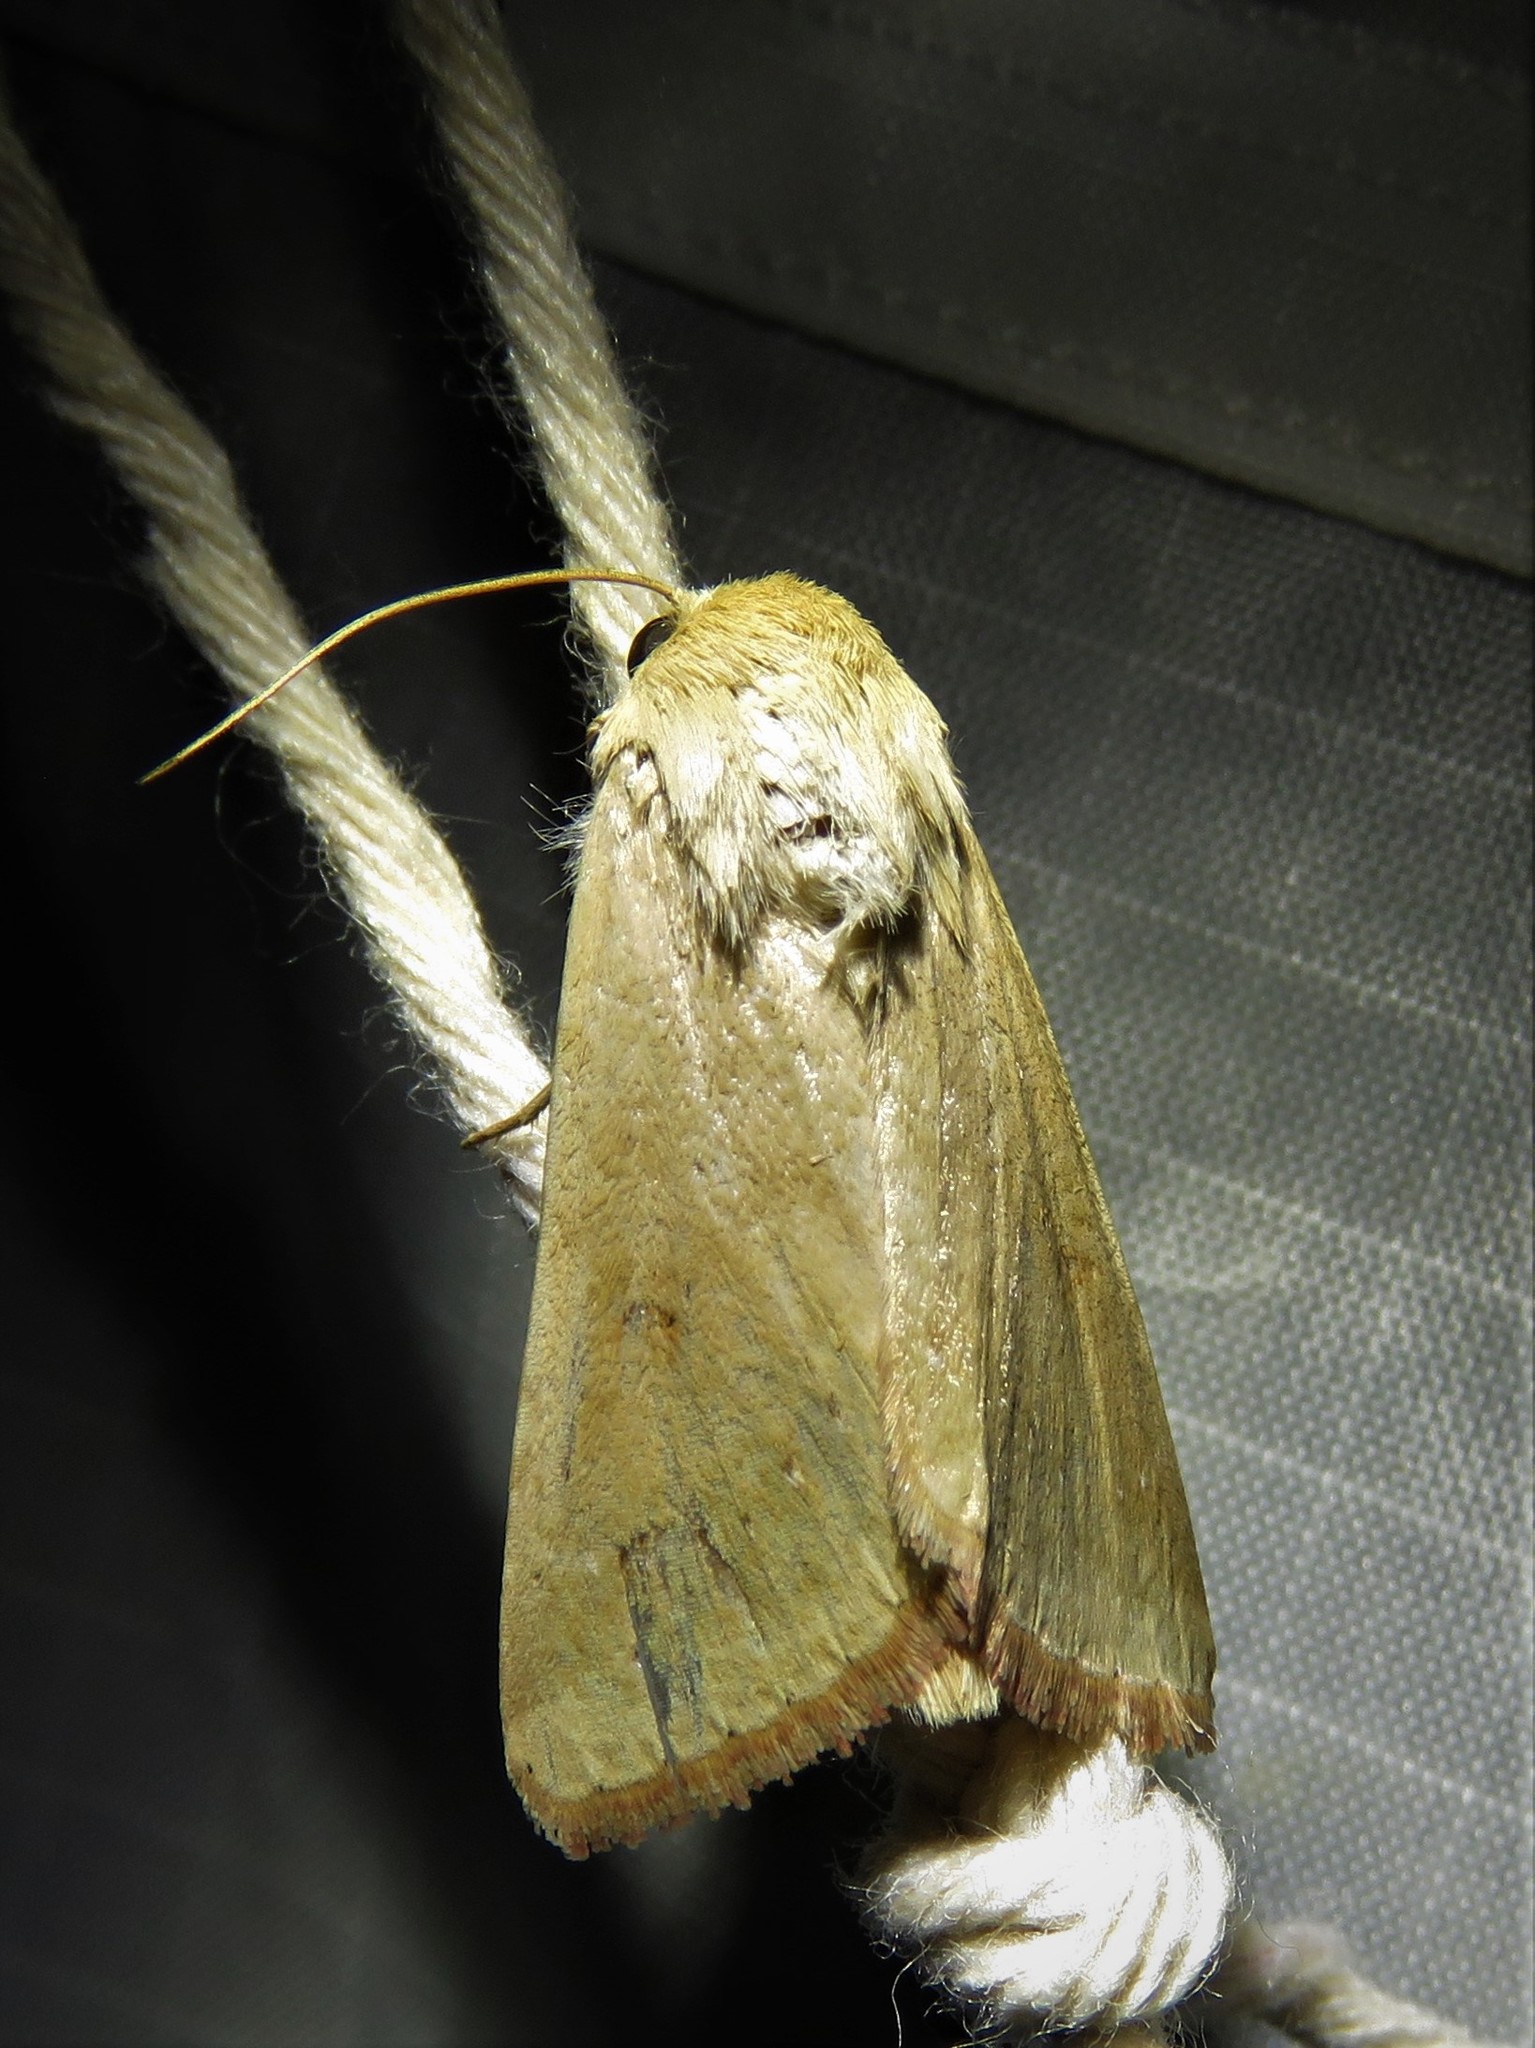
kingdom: Animalia
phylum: Arthropoda
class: Insecta
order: Lepidoptera
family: Noctuidae
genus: Helicoverpa
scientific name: Helicoverpa zea
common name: Bollworm
